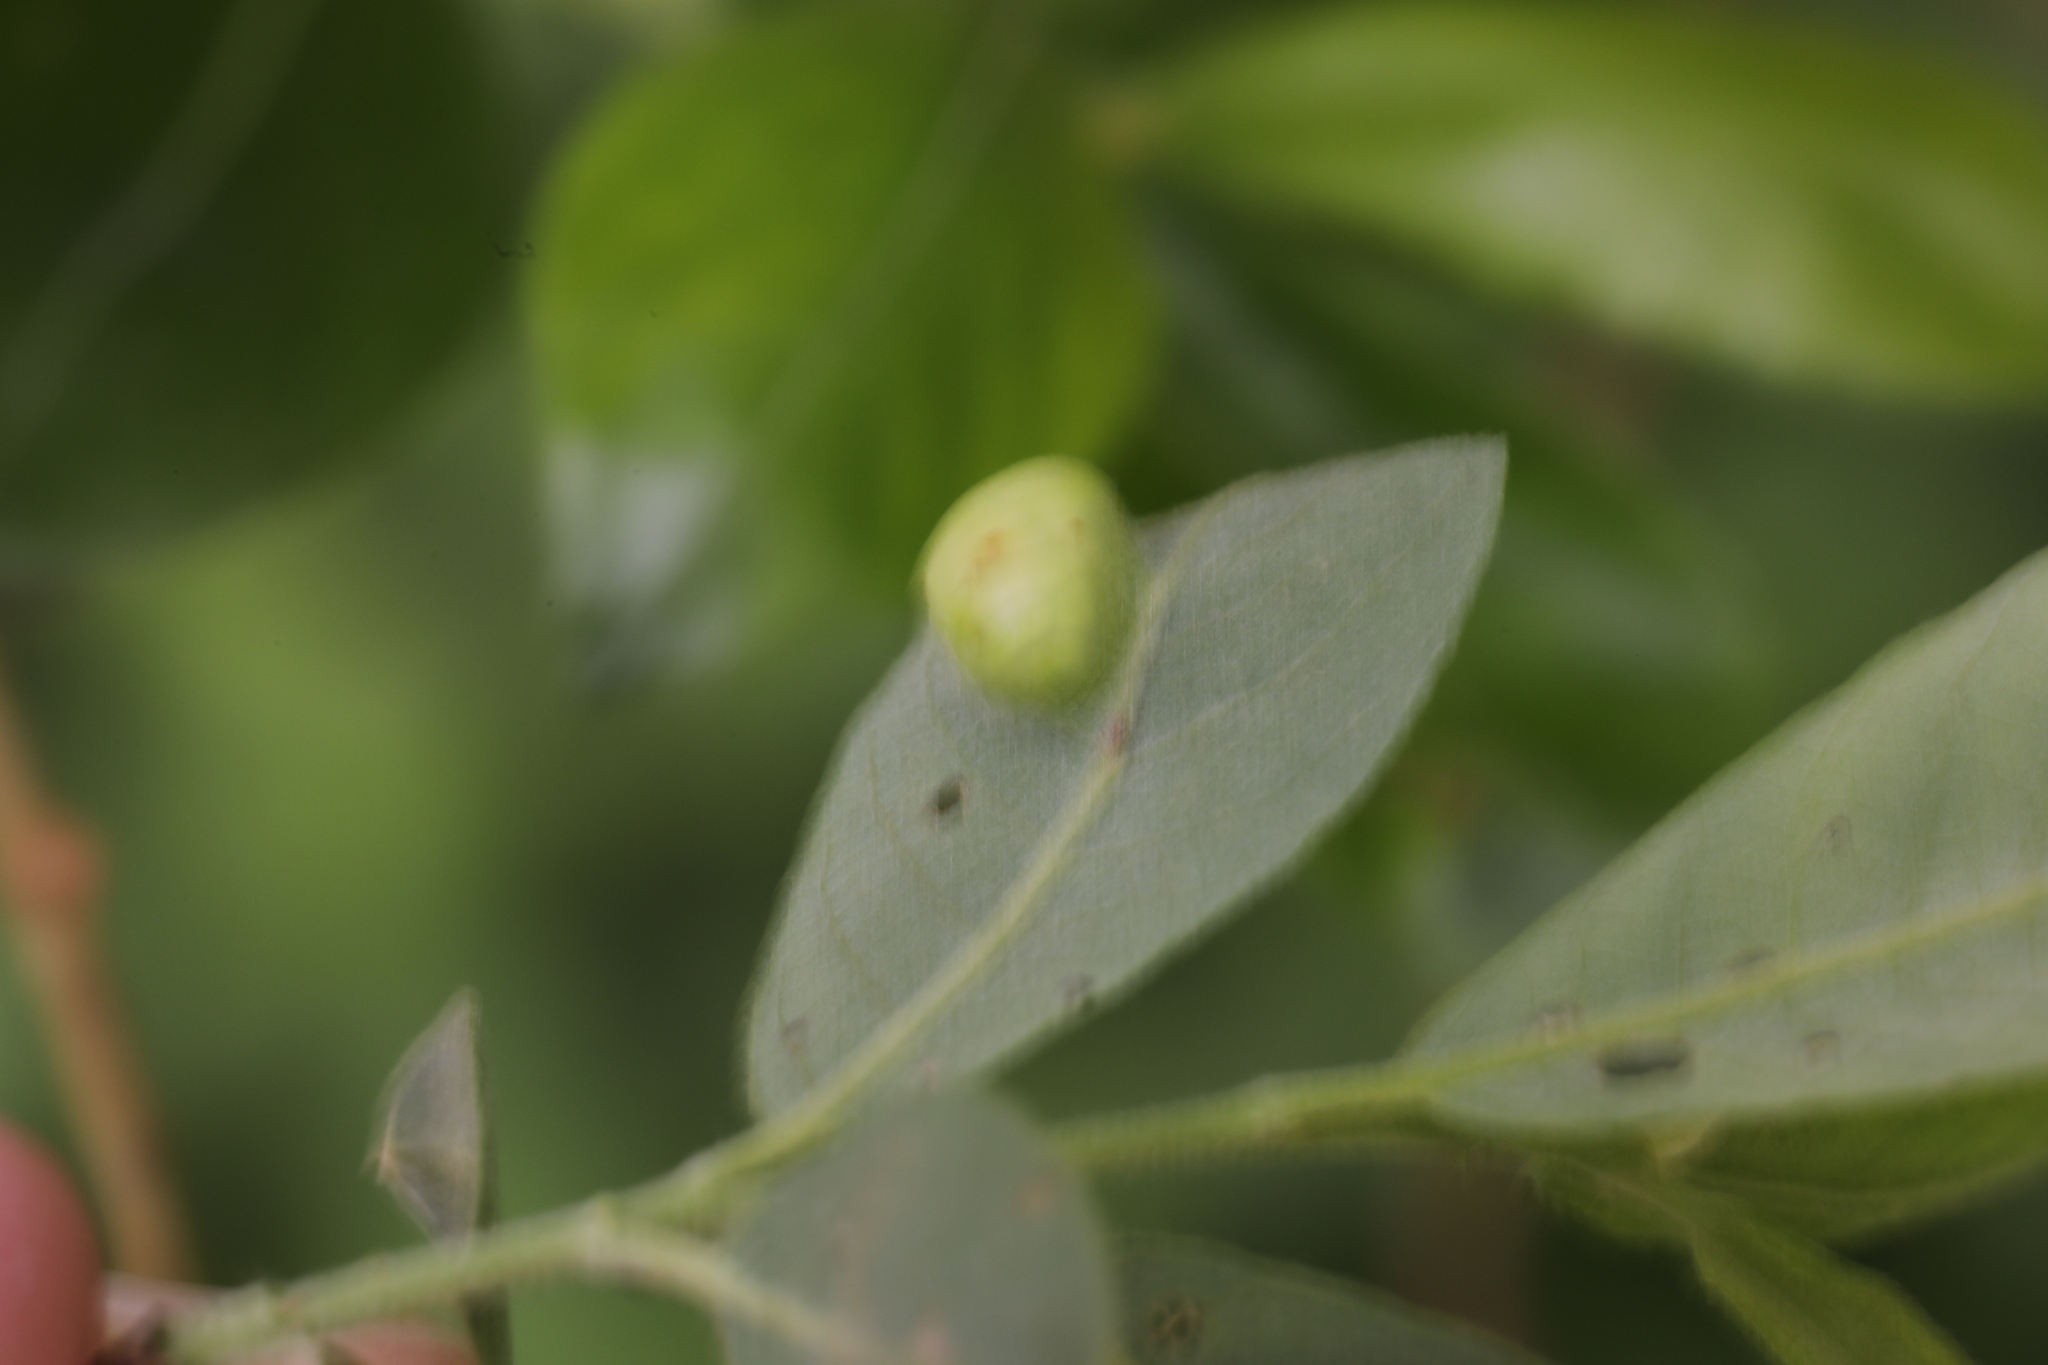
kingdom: Animalia
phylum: Arthropoda
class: Insecta
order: Hymenoptera
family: Tenthredinidae
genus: Pontania
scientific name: Pontania pedunculi
